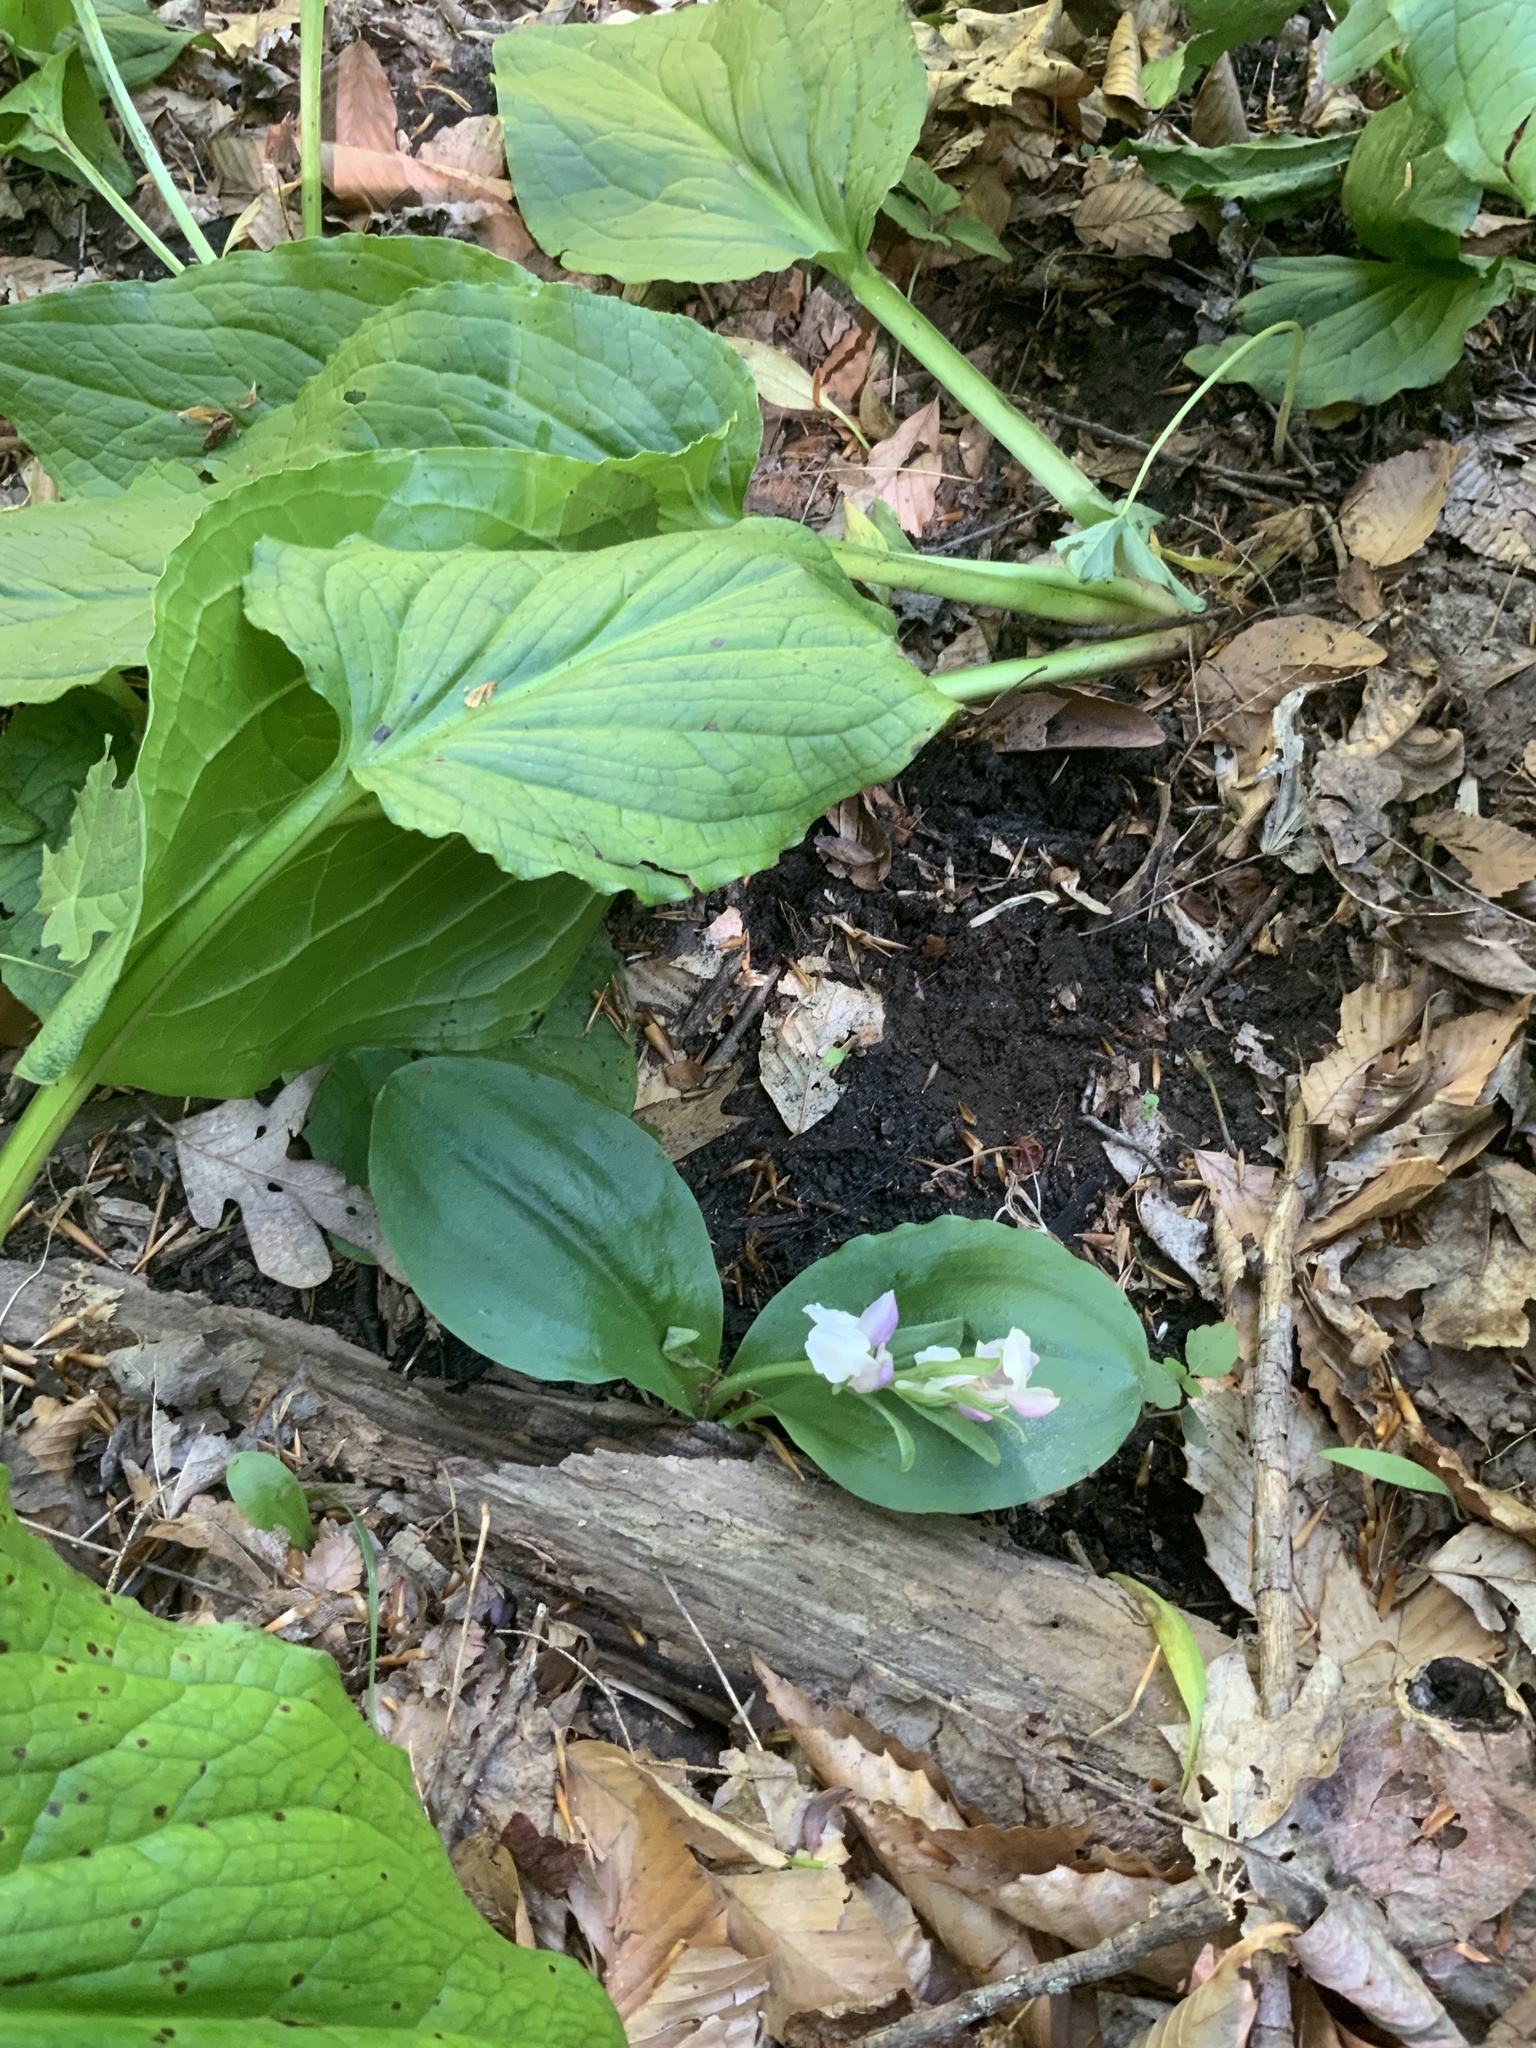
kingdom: Plantae
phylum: Tracheophyta
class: Liliopsida
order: Asparagales
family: Orchidaceae
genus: Galearis
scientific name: Galearis spectabilis
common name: Purple-hooded orchis
